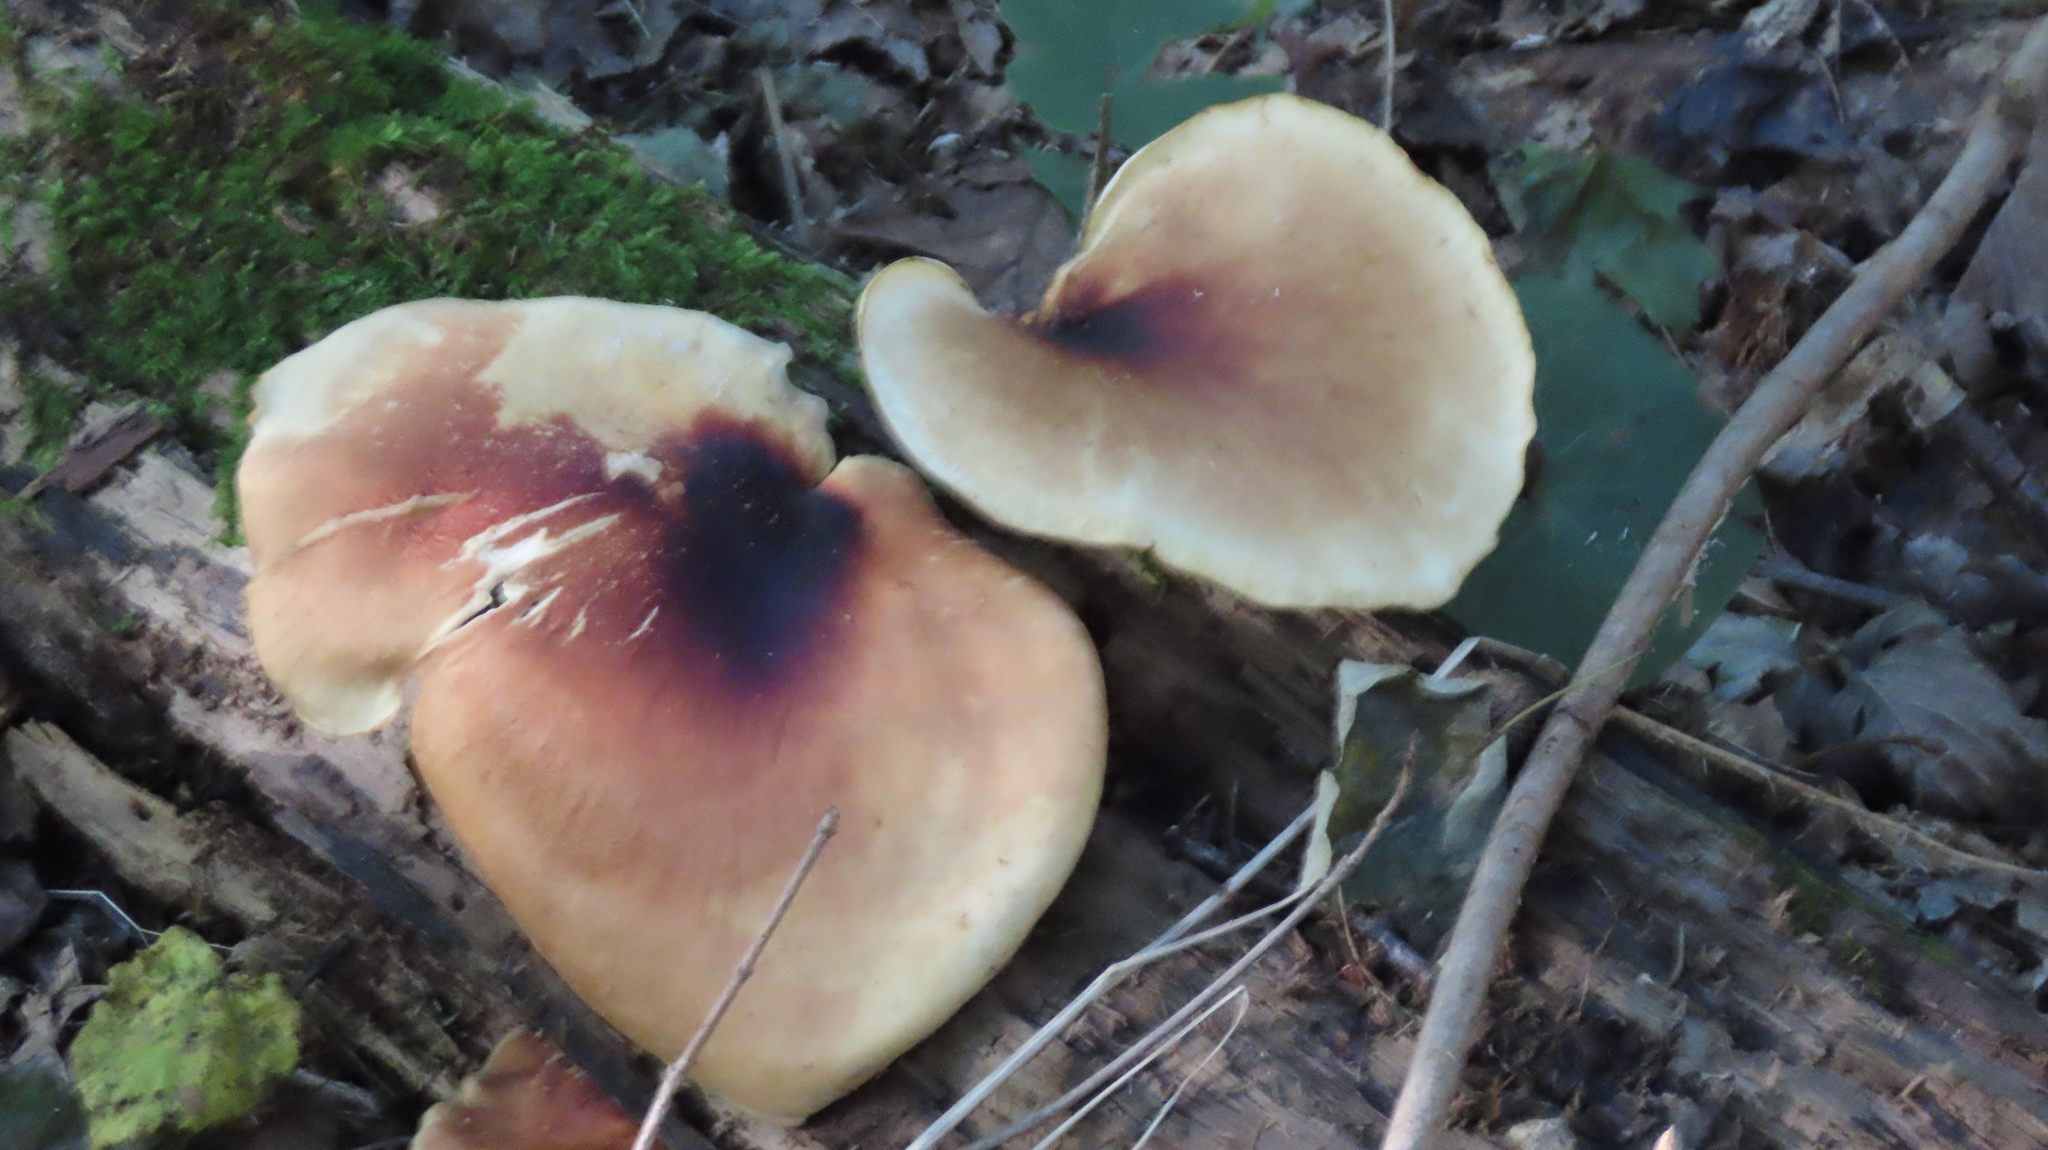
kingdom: Fungi
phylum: Basidiomycota
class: Agaricomycetes
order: Polyporales
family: Polyporaceae
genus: Picipes
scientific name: Picipes badius
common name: Bay polypore
